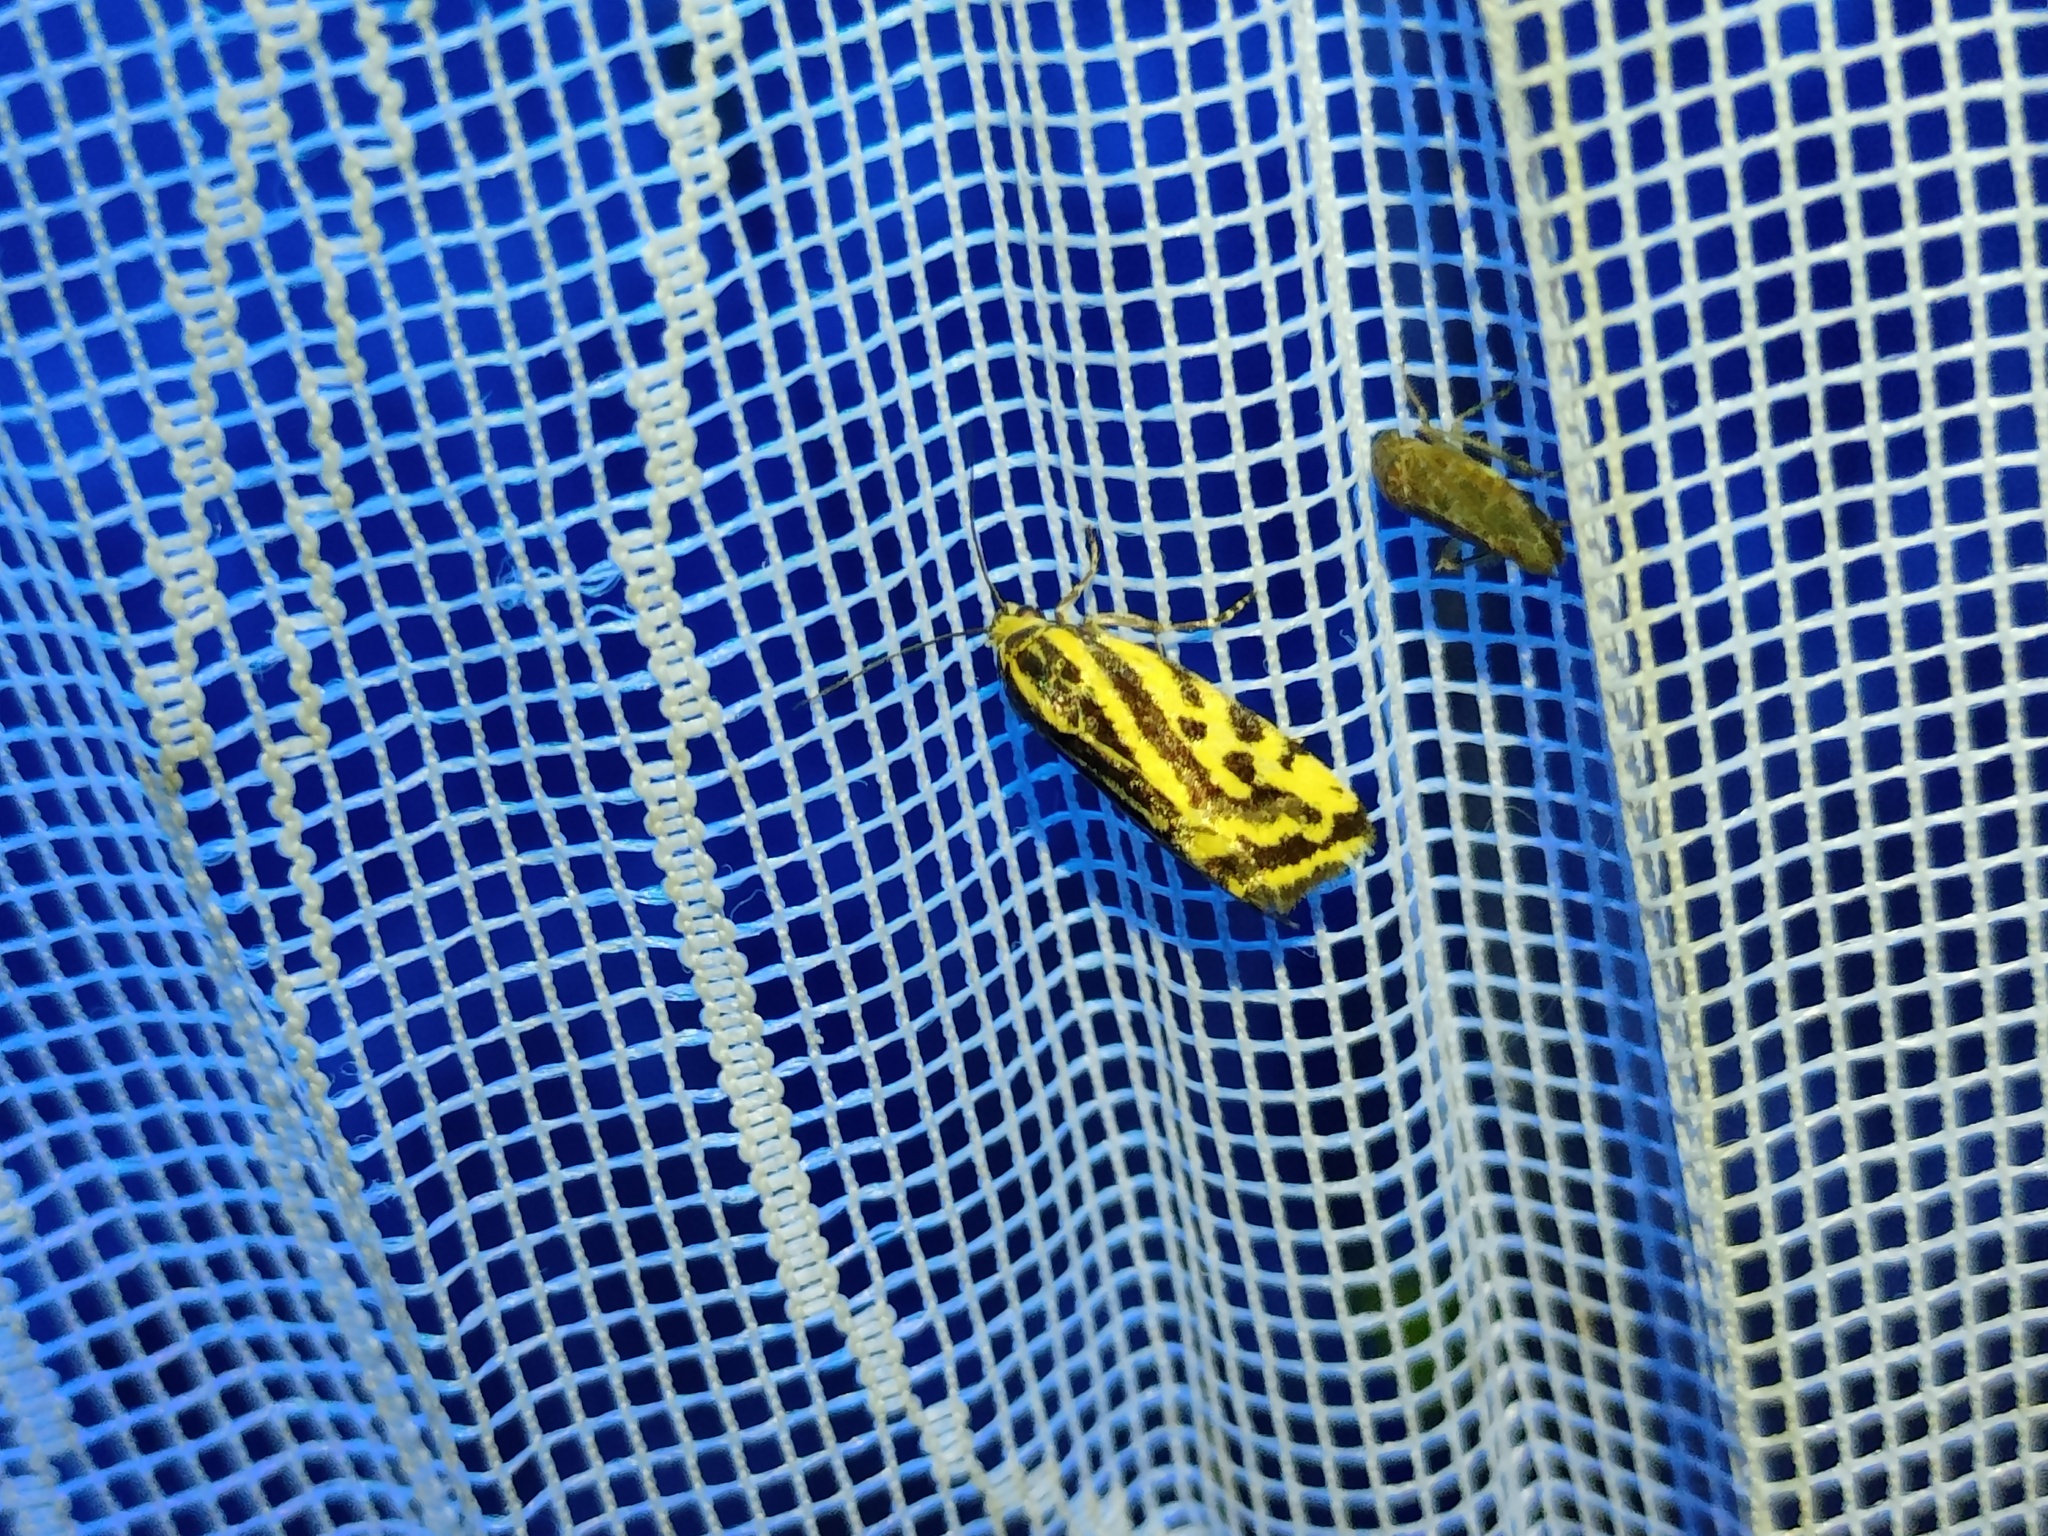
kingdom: Animalia
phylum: Arthropoda
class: Insecta
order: Lepidoptera
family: Noctuidae
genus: Acontia
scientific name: Acontia trabealis
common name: Spotted sulphur
